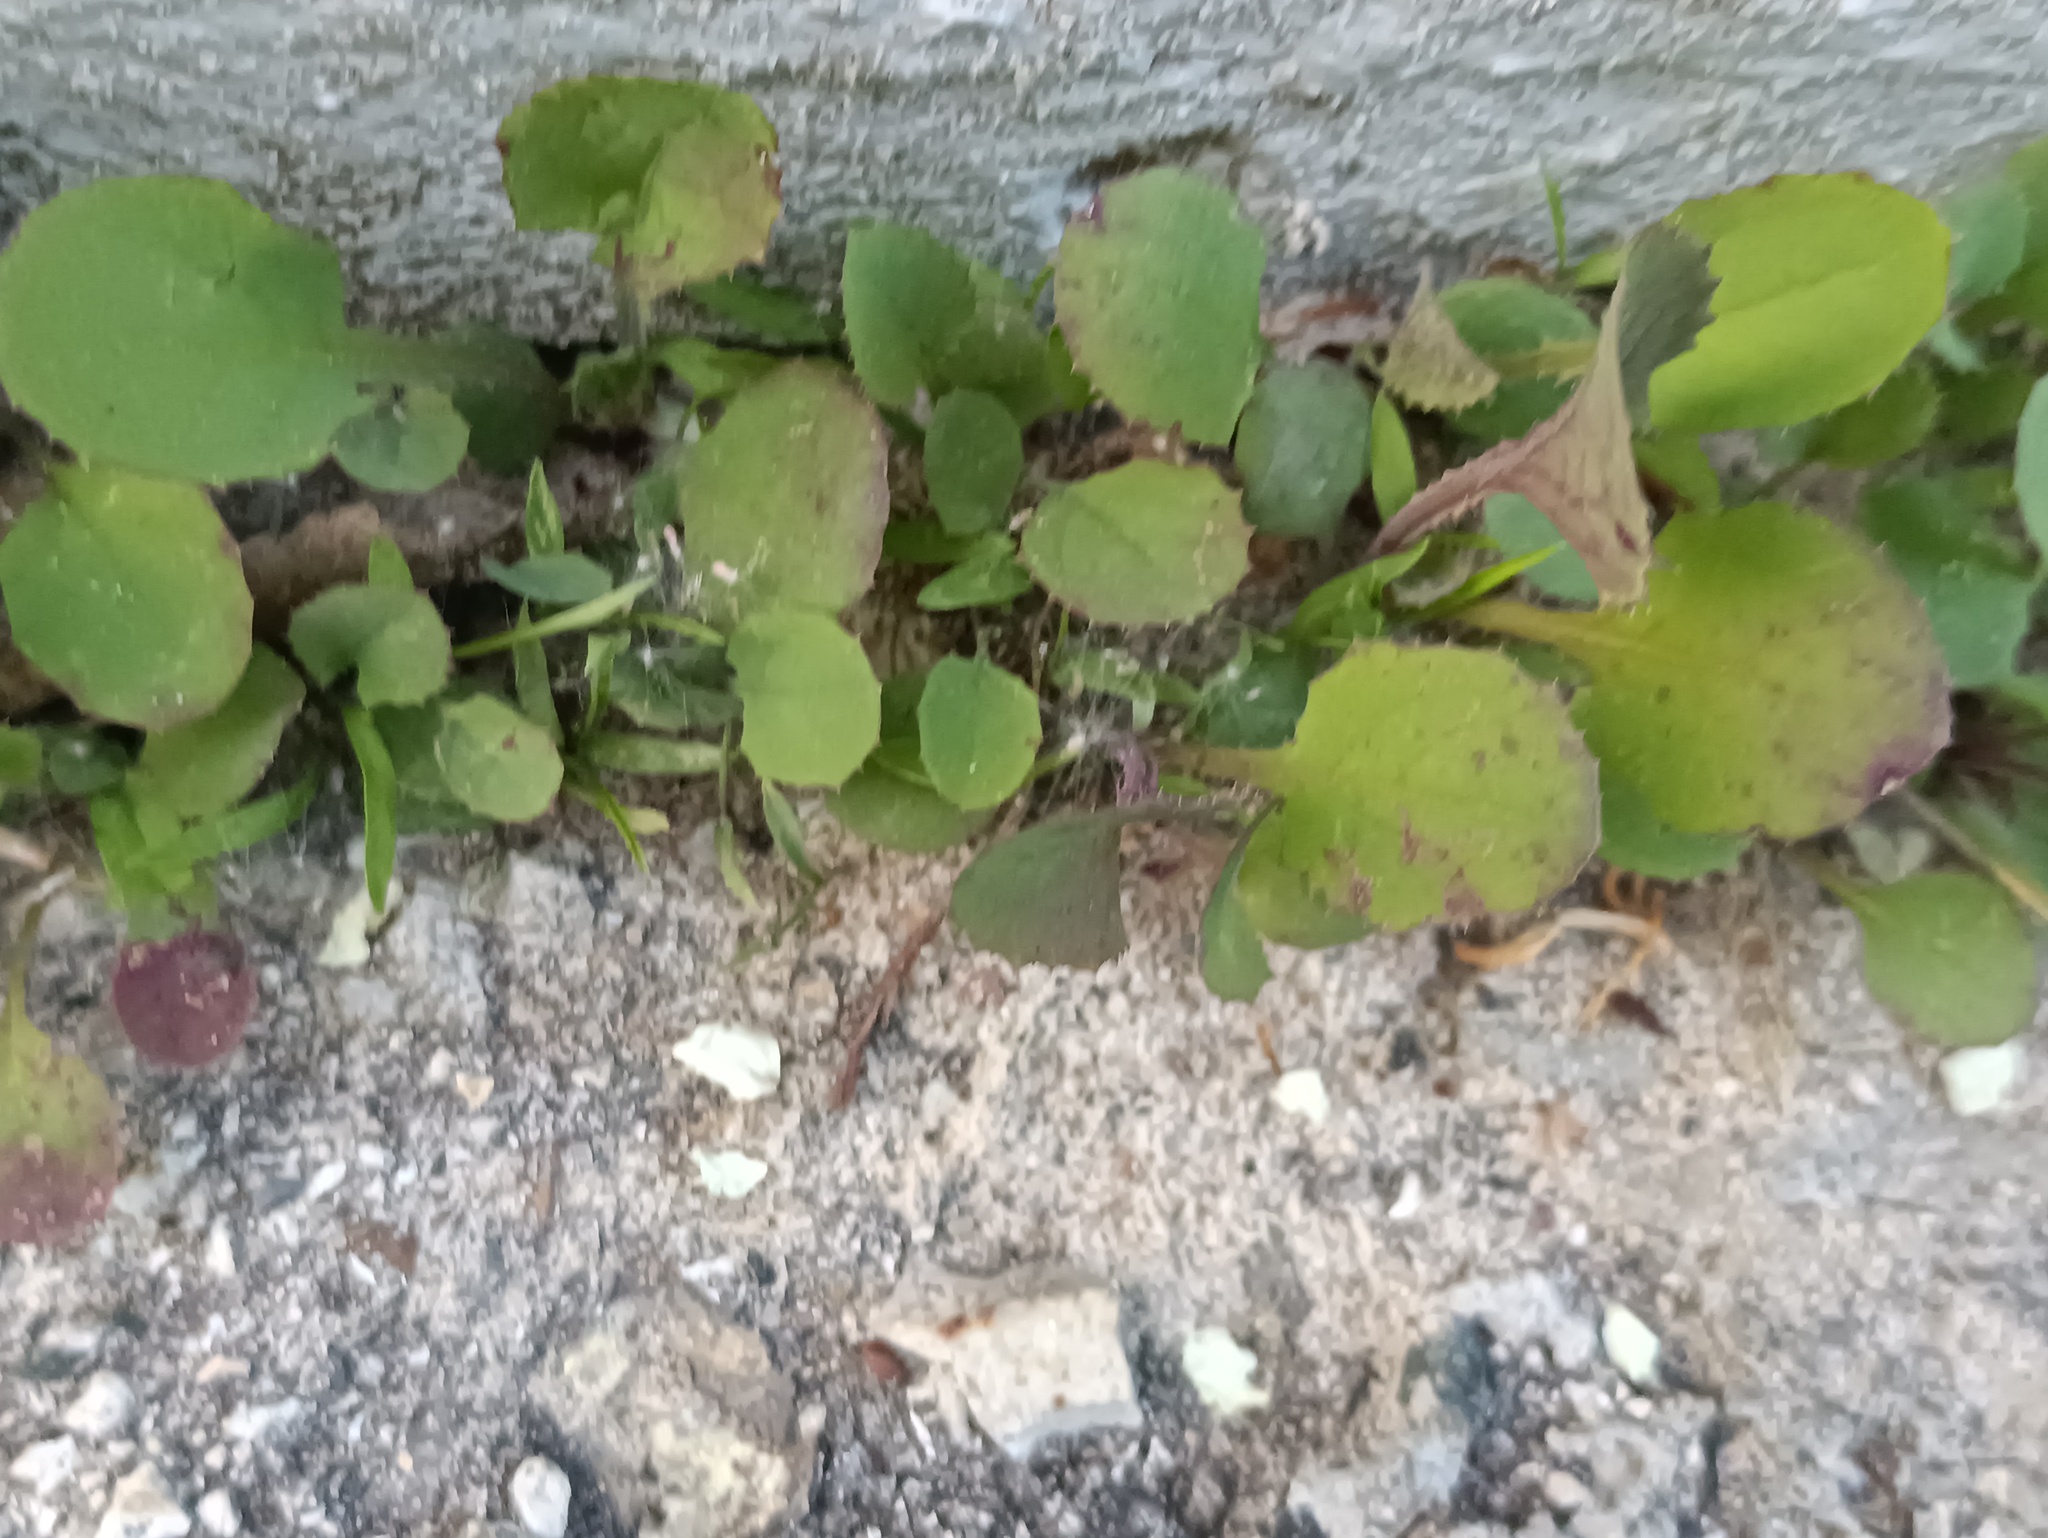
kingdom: Plantae
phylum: Tracheophyta
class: Magnoliopsida
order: Asterales
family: Asteraceae
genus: Sonchus
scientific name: Sonchus oleraceus
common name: Common sowthistle
